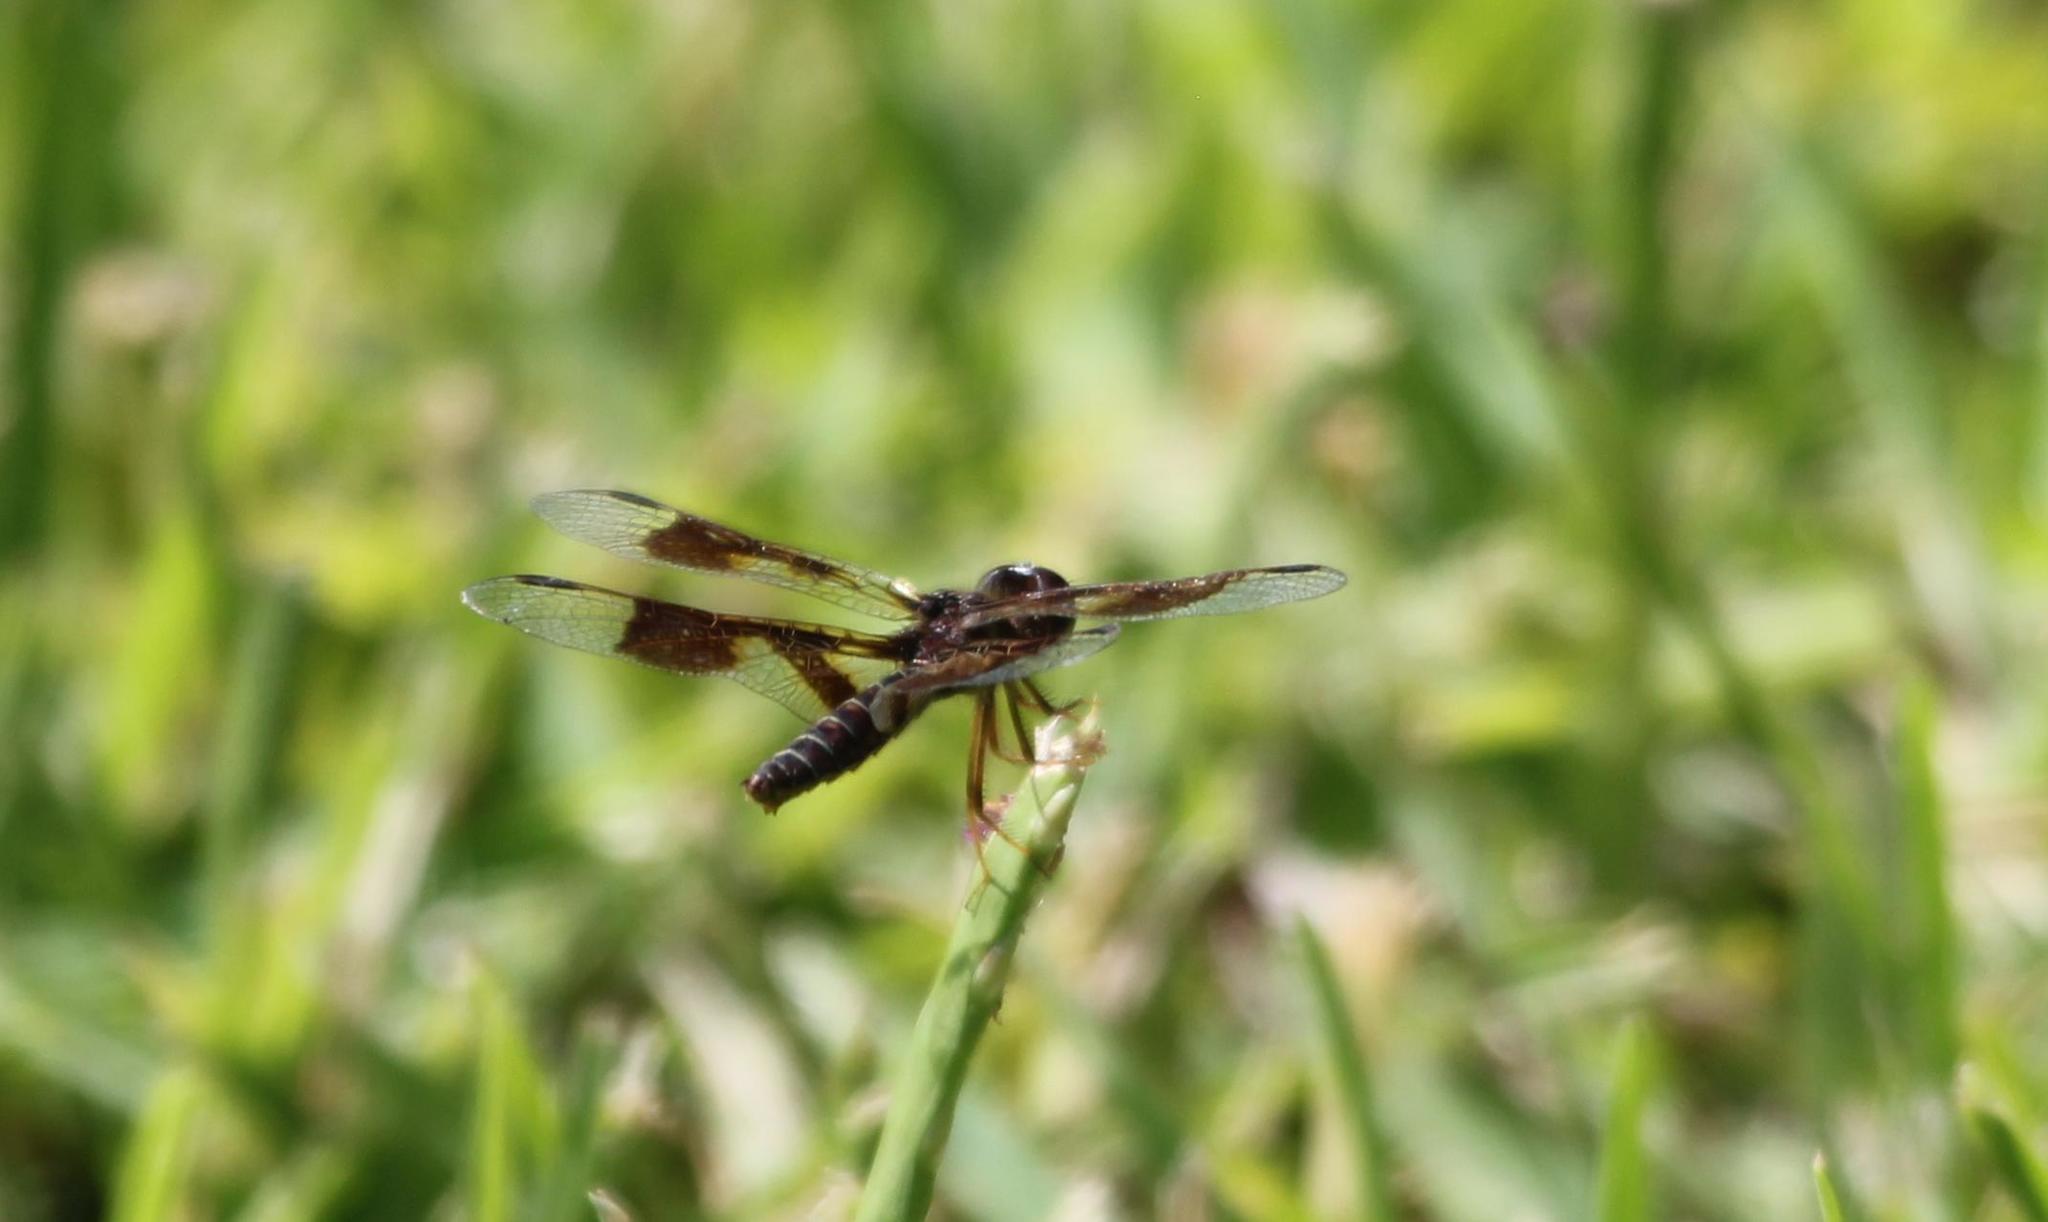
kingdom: Animalia
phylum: Arthropoda
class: Insecta
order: Odonata
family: Libellulidae
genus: Perithemis
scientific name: Perithemis tenera
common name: Eastern amberwing
